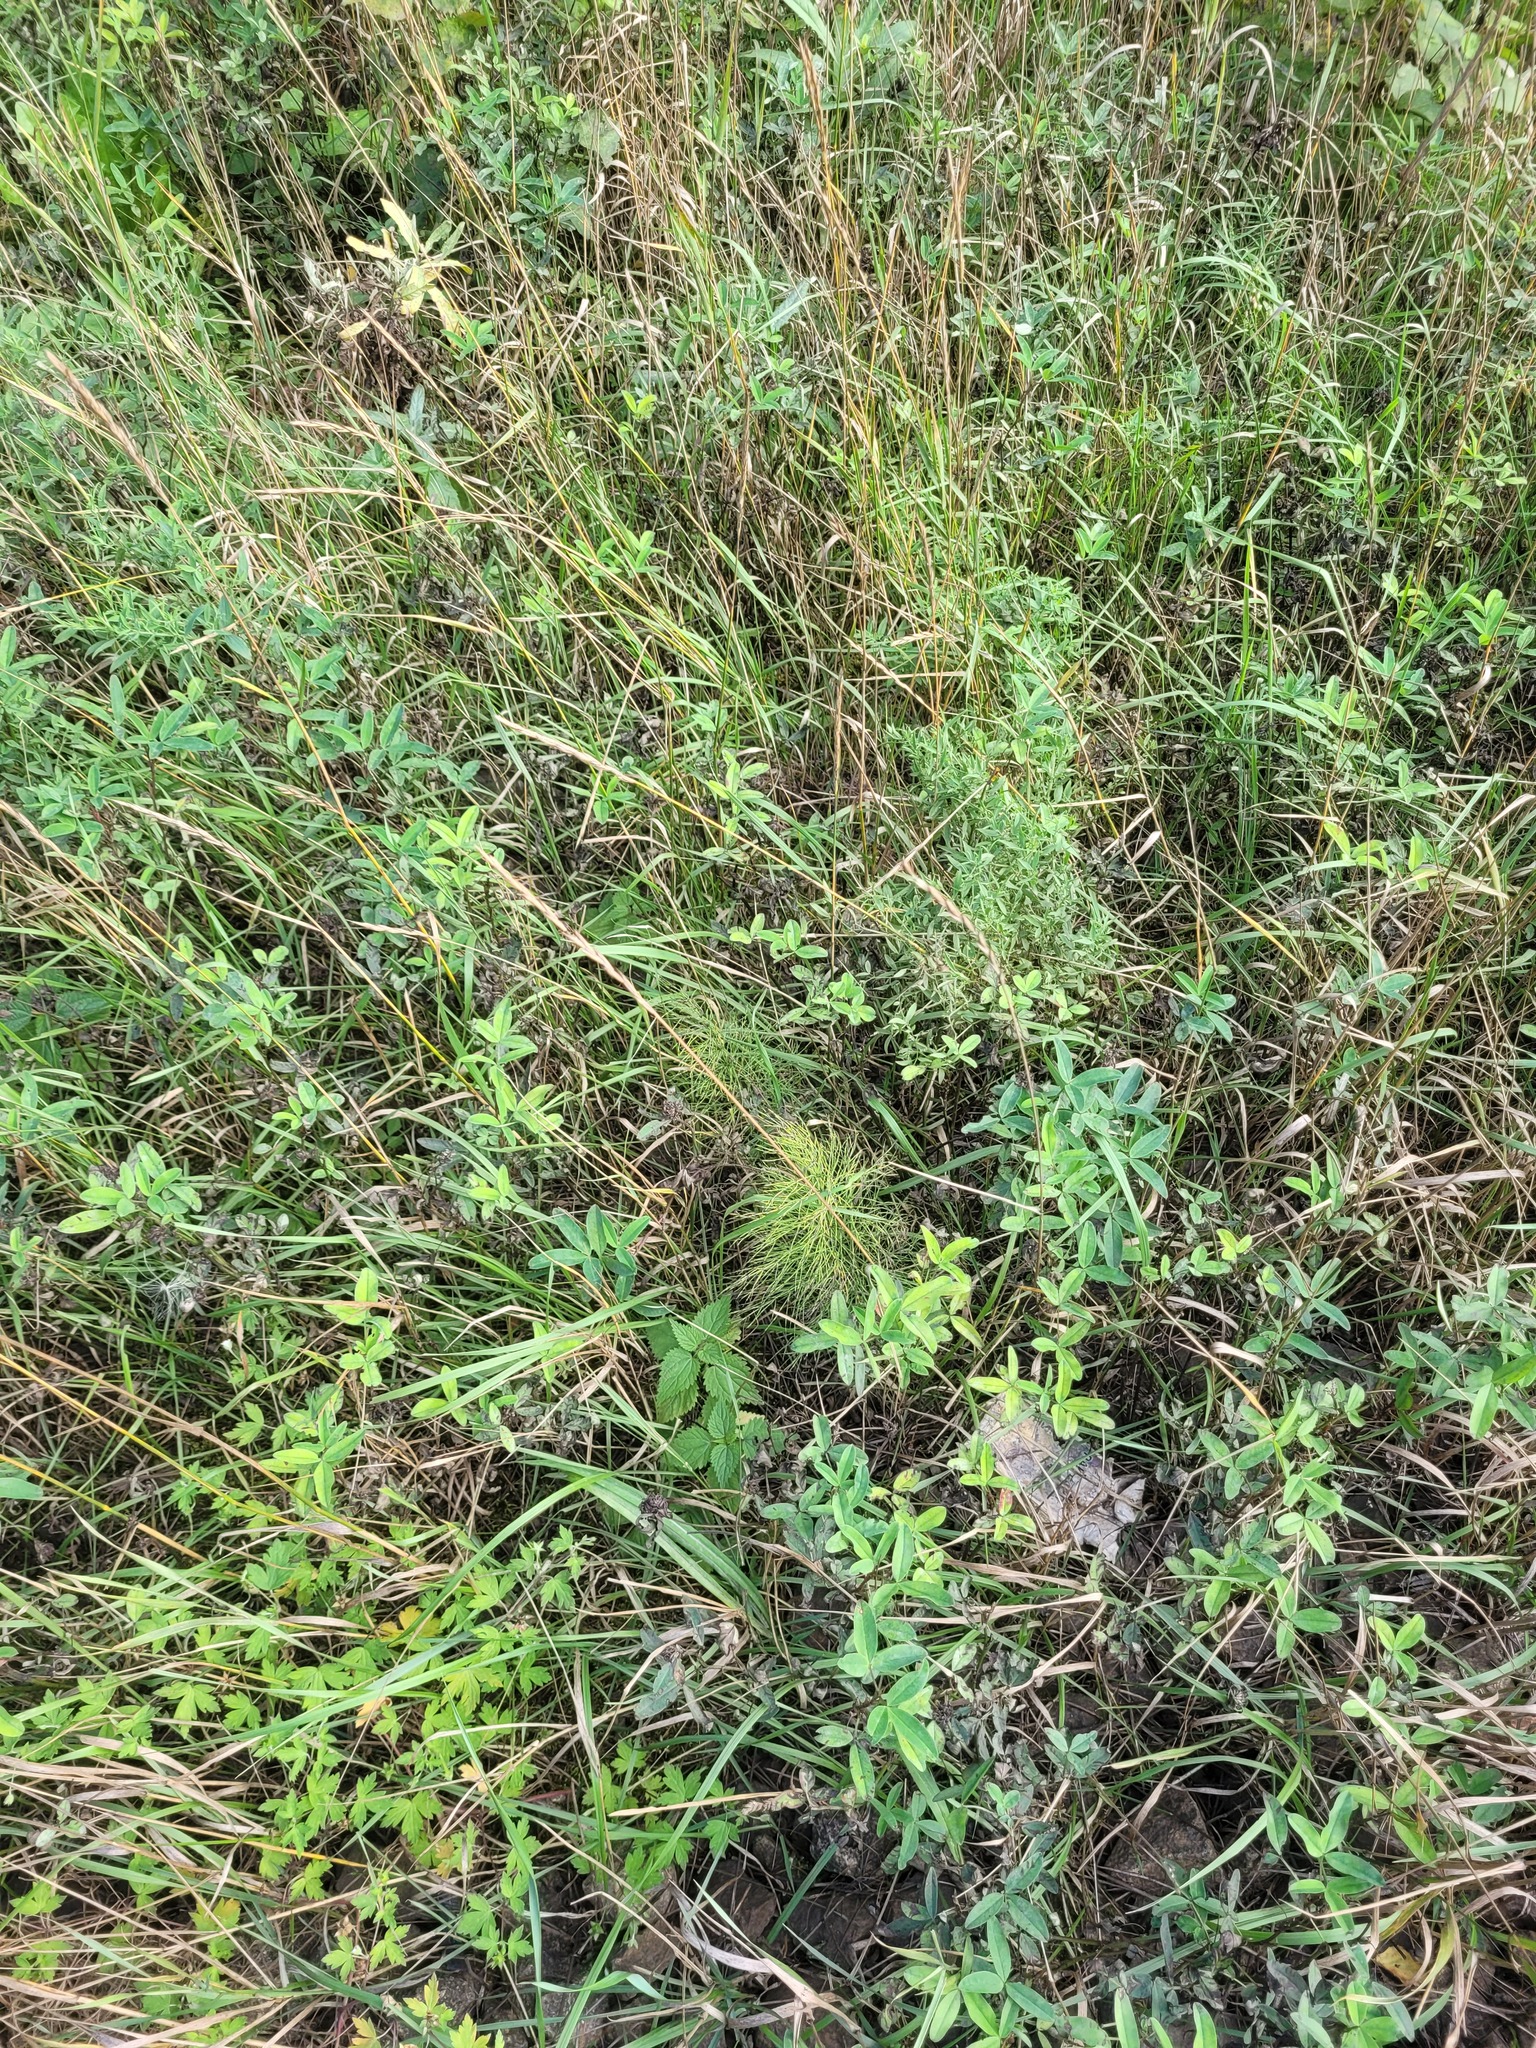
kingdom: Plantae
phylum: Tracheophyta
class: Polypodiopsida
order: Equisetales
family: Equisetaceae
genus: Equisetum
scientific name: Equisetum sylvaticum
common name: Wood horsetail
